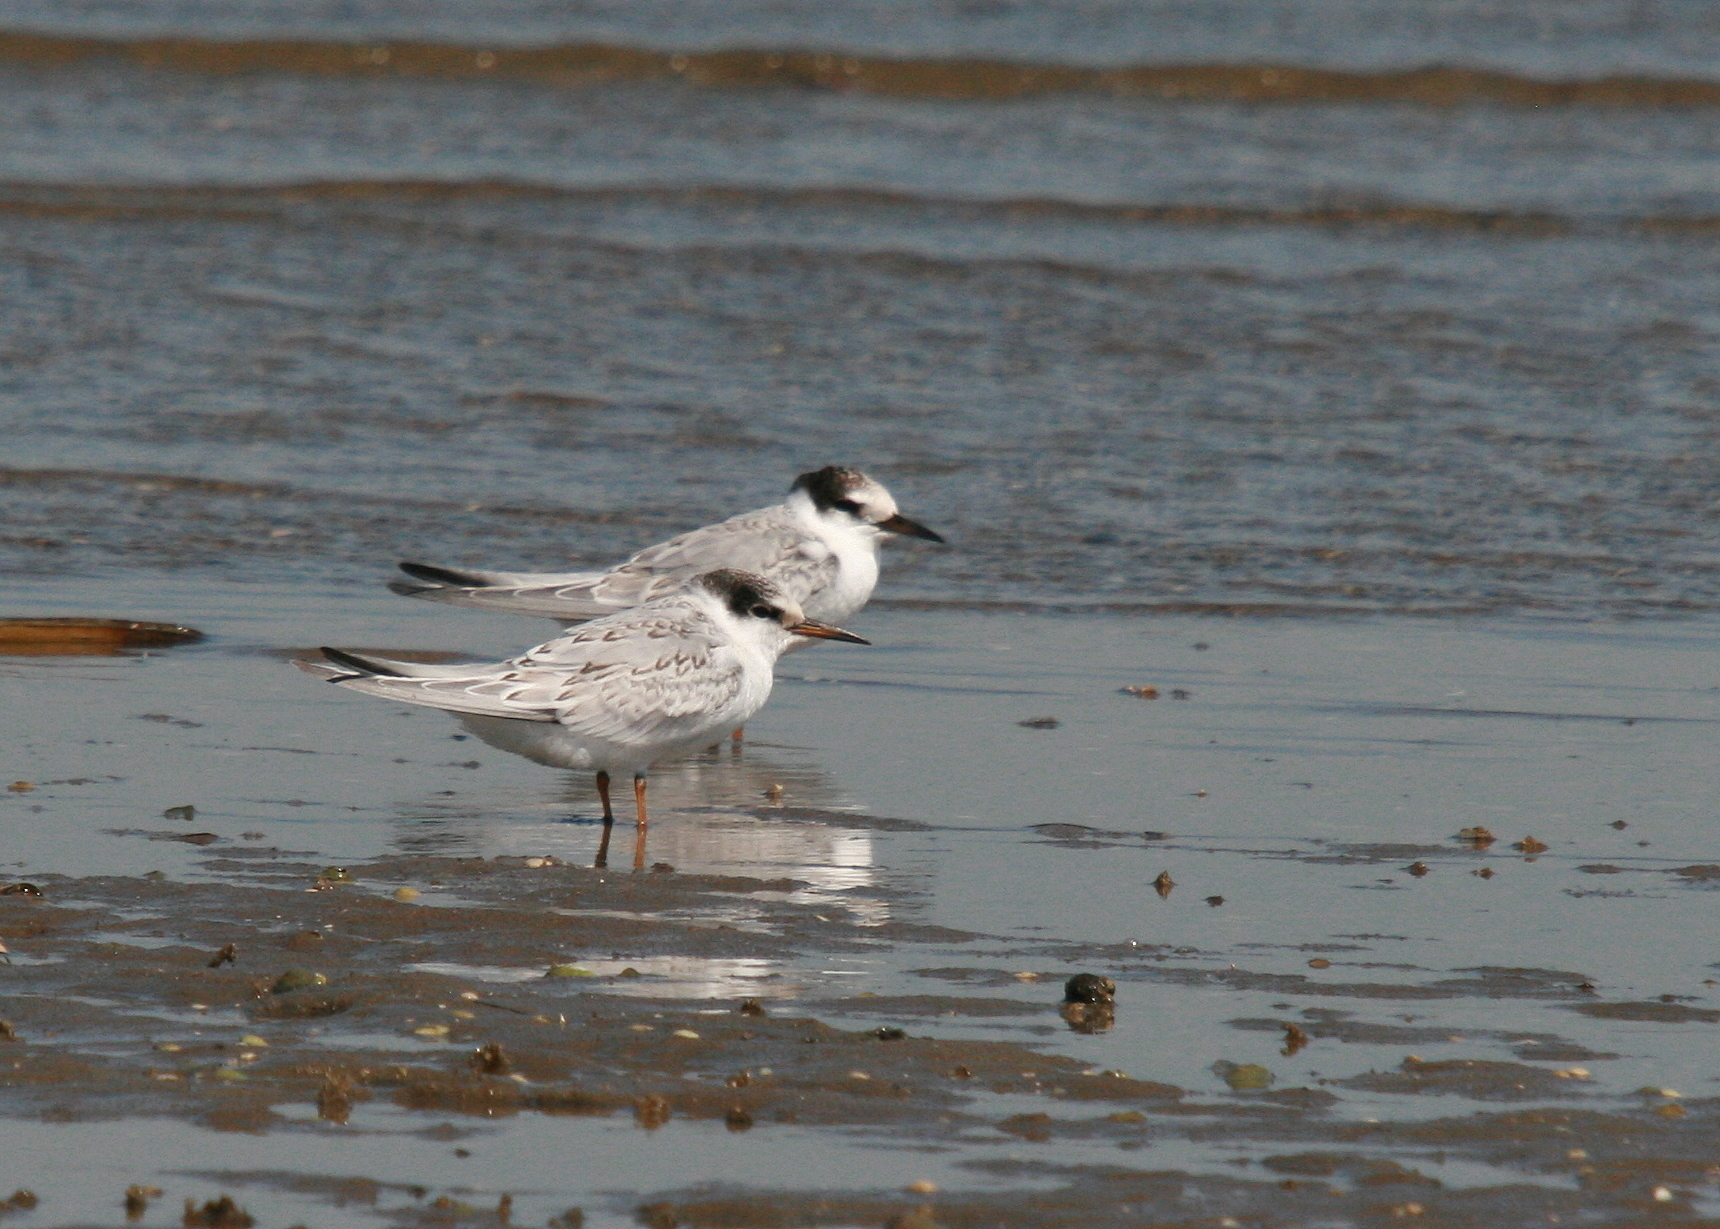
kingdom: Animalia
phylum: Chordata
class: Aves
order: Charadriiformes
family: Laridae
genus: Sternula
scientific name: Sternula albifrons
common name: Little tern
